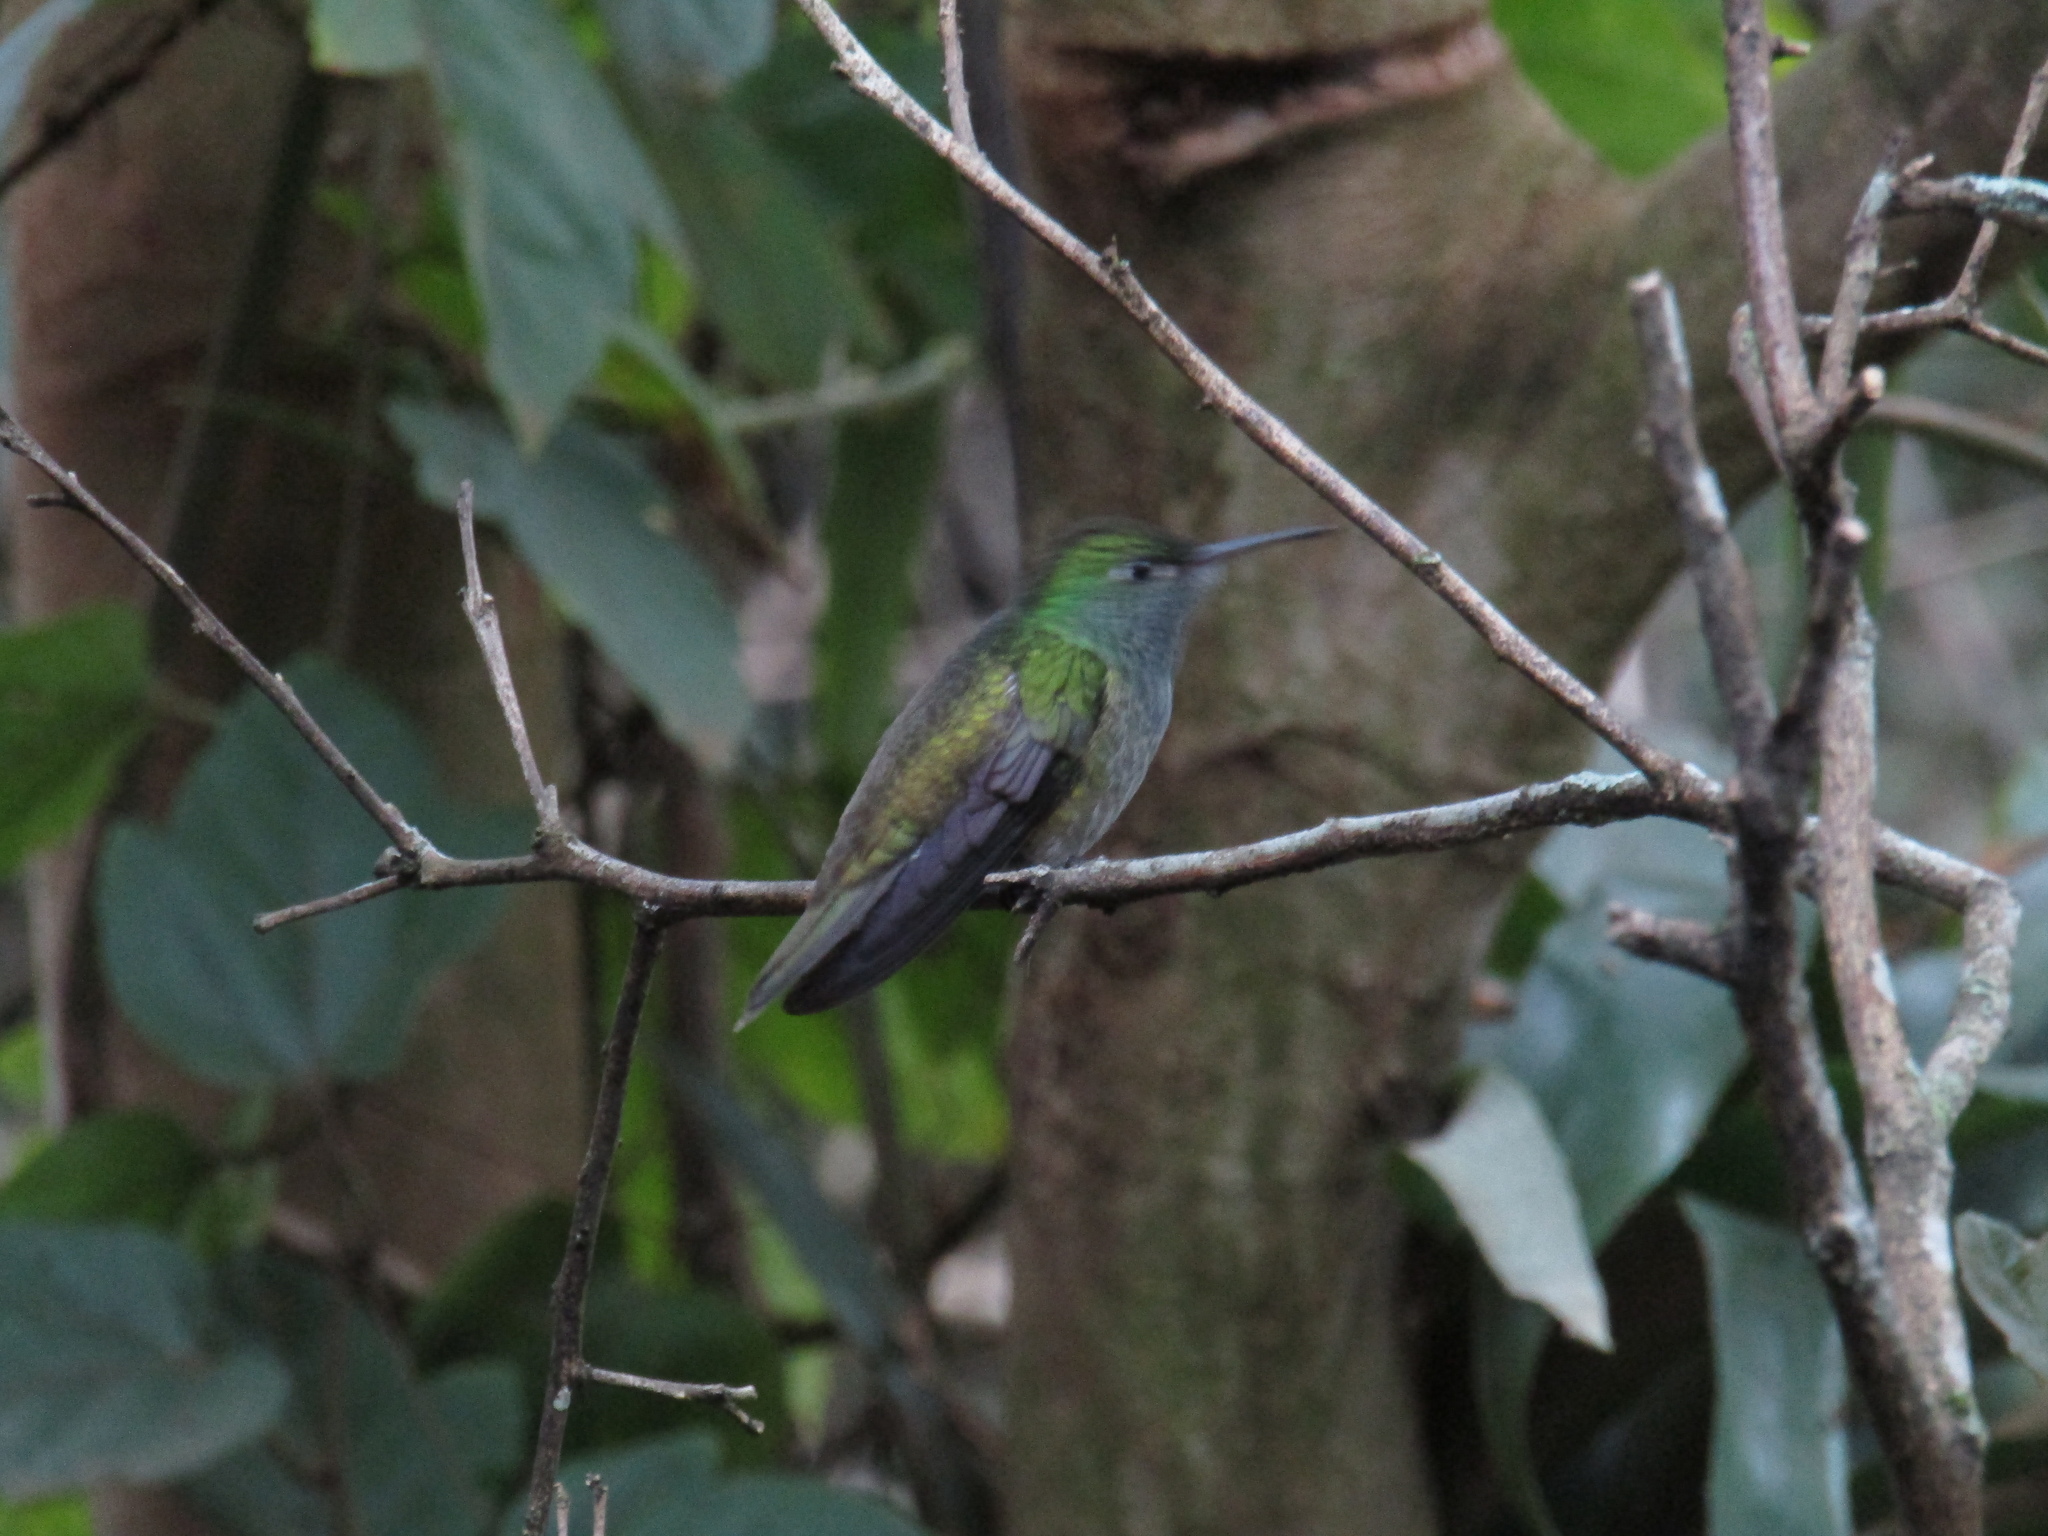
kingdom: Animalia
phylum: Chordata
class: Aves
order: Apodiformes
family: Trochilidae
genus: Chrysuronia
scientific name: Chrysuronia versicolor
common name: Versicolored emerald
